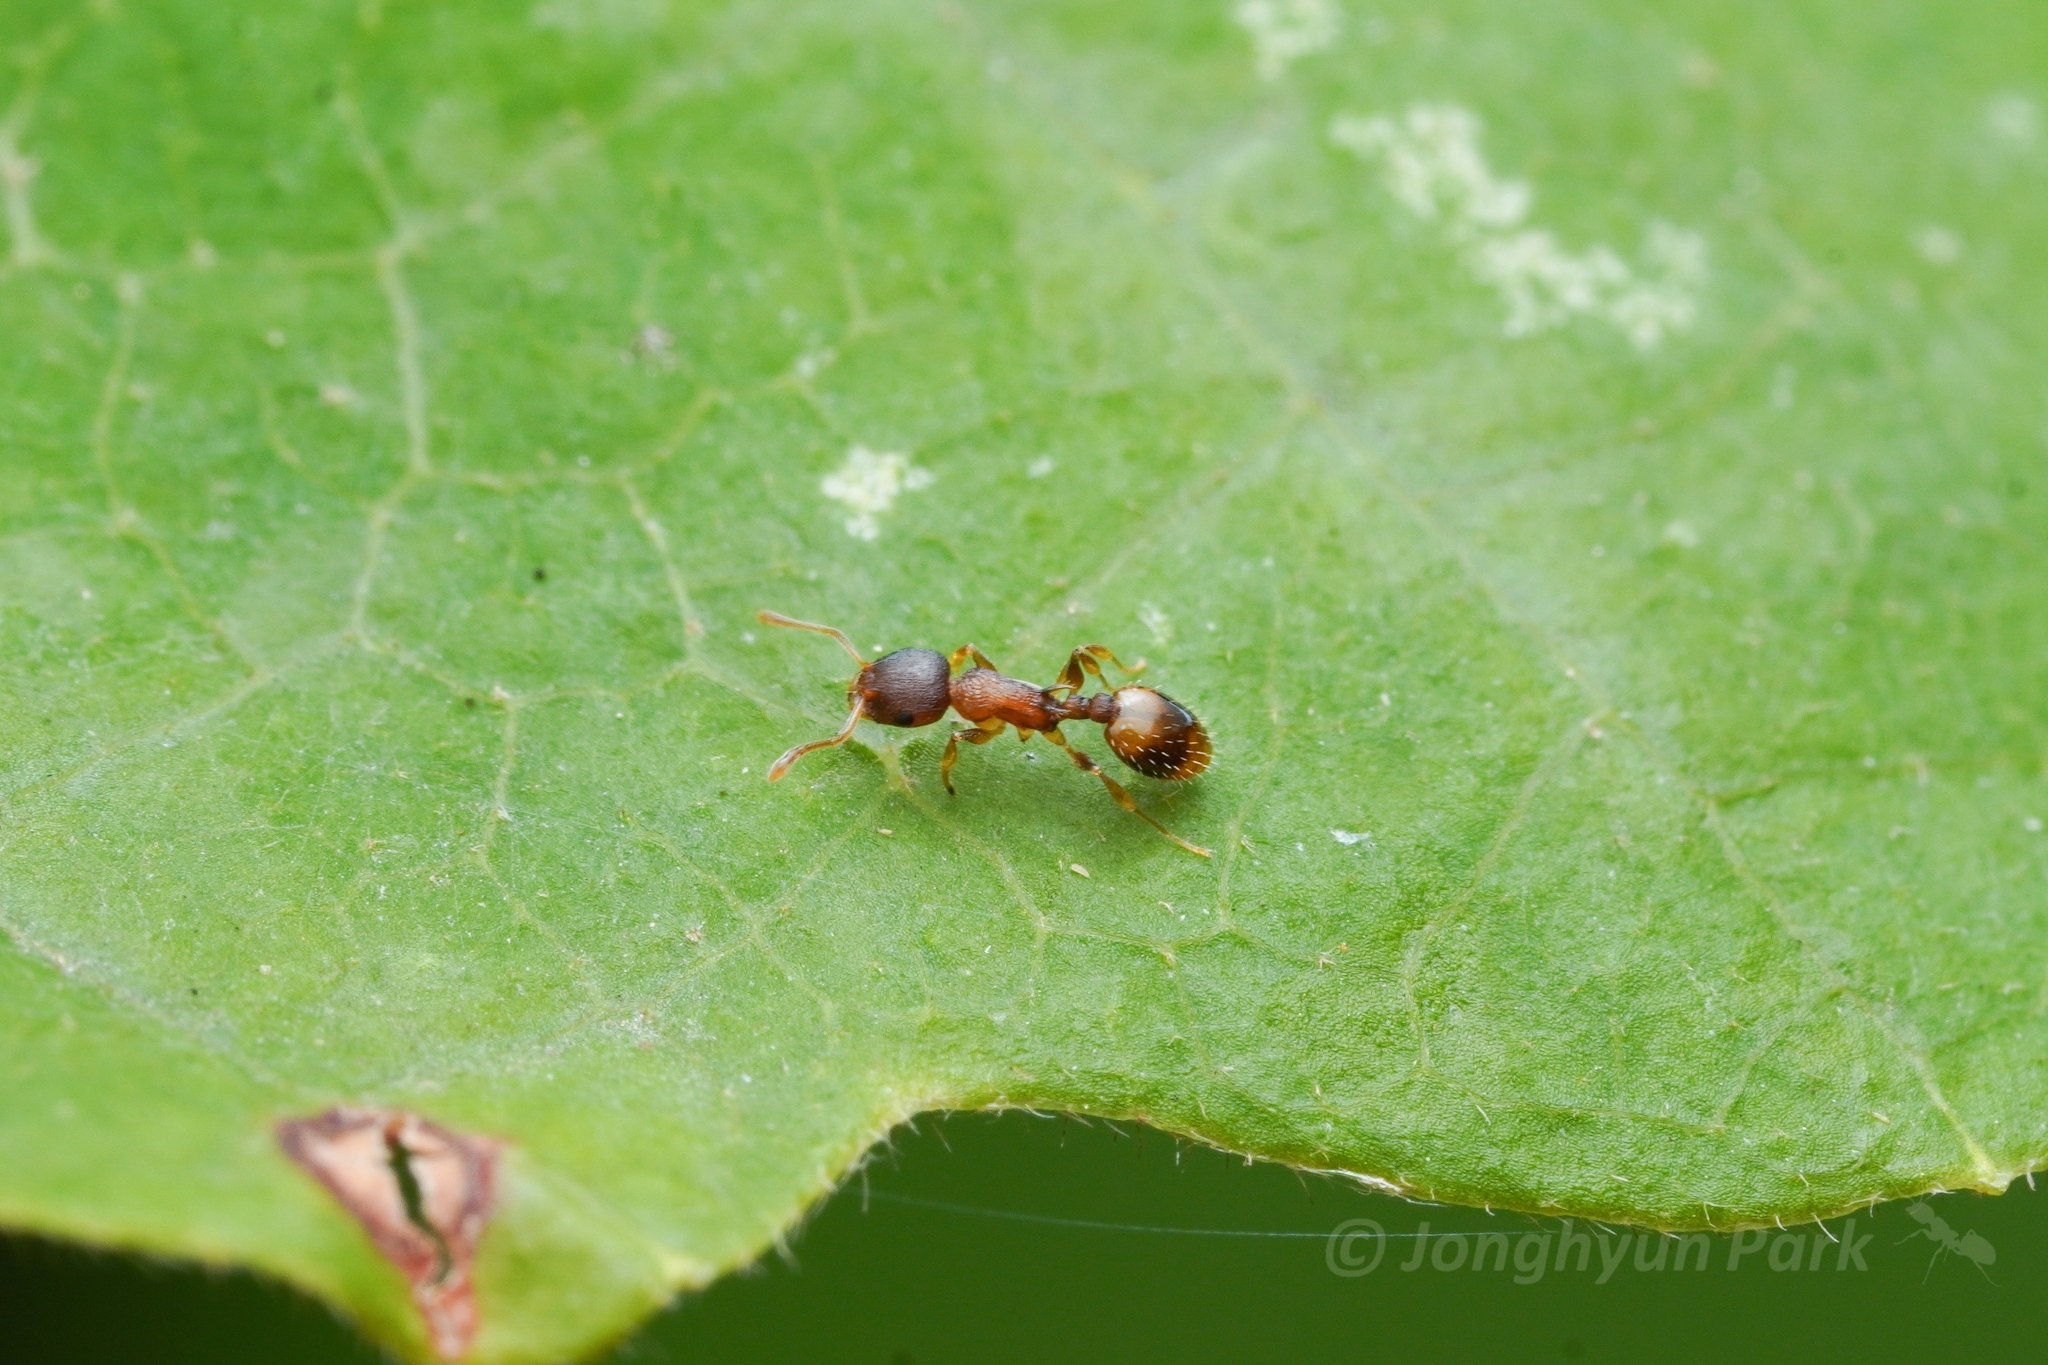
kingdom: Animalia
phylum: Arthropoda
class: Insecta
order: Hymenoptera
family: Formicidae
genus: Temnothorax
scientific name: Temnothorax curvispinosus
